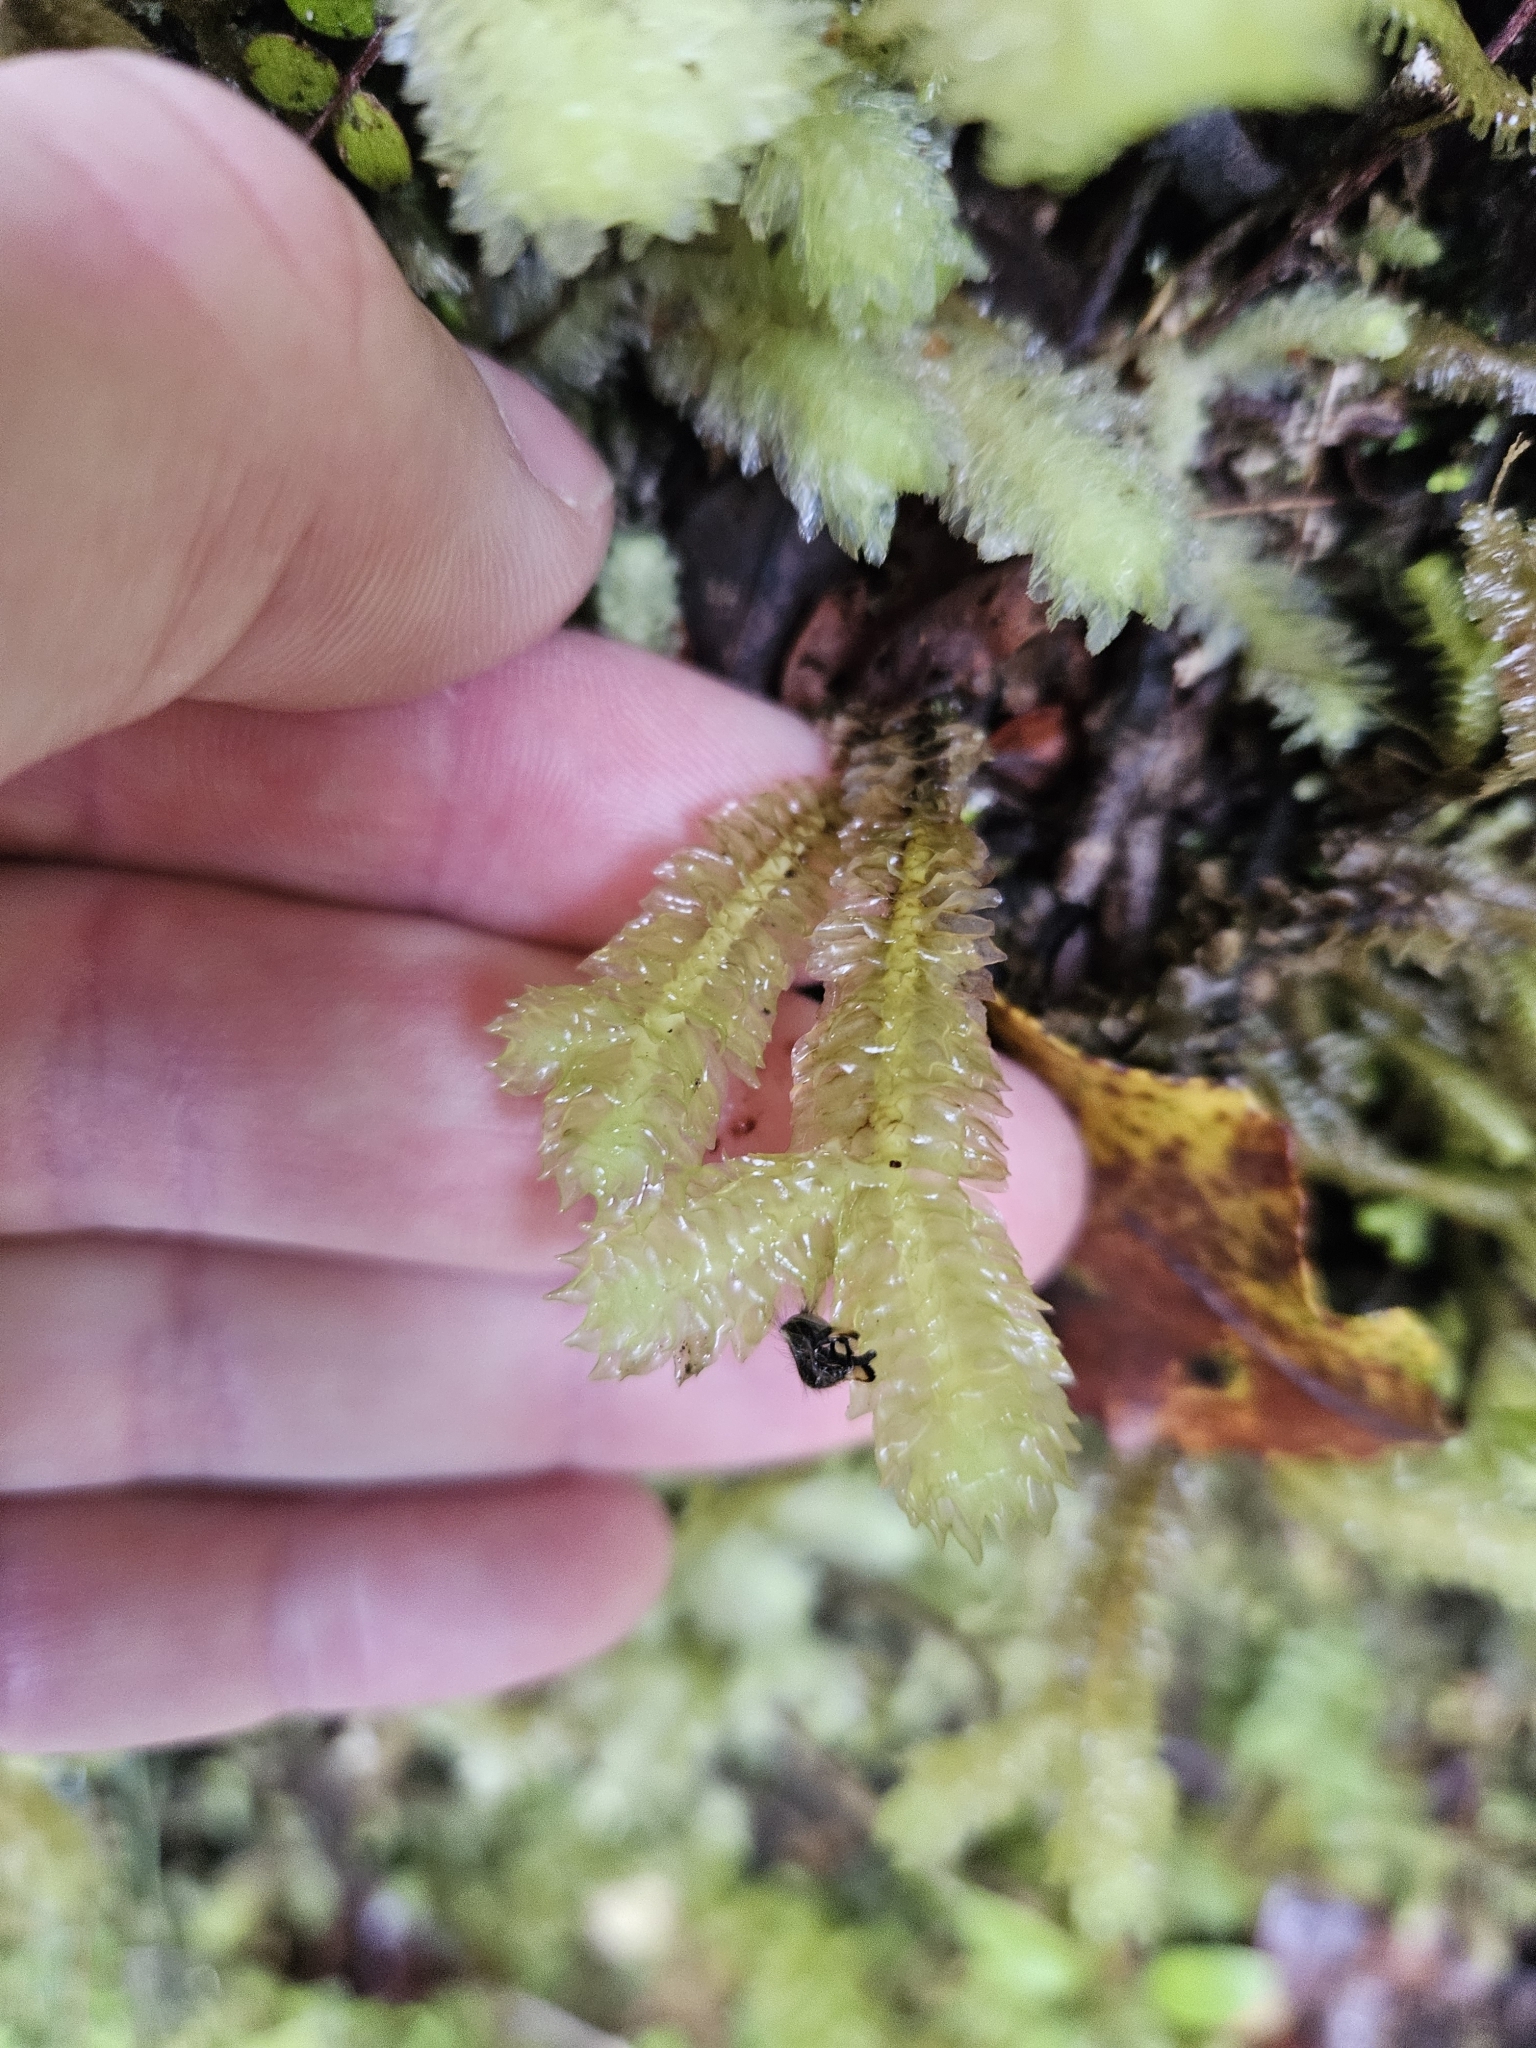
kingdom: Plantae
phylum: Marchantiophyta
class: Jungermanniopsida
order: Jungermanniales
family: Schistochilaceae
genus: Schistochila
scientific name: Schistochila nobilis
